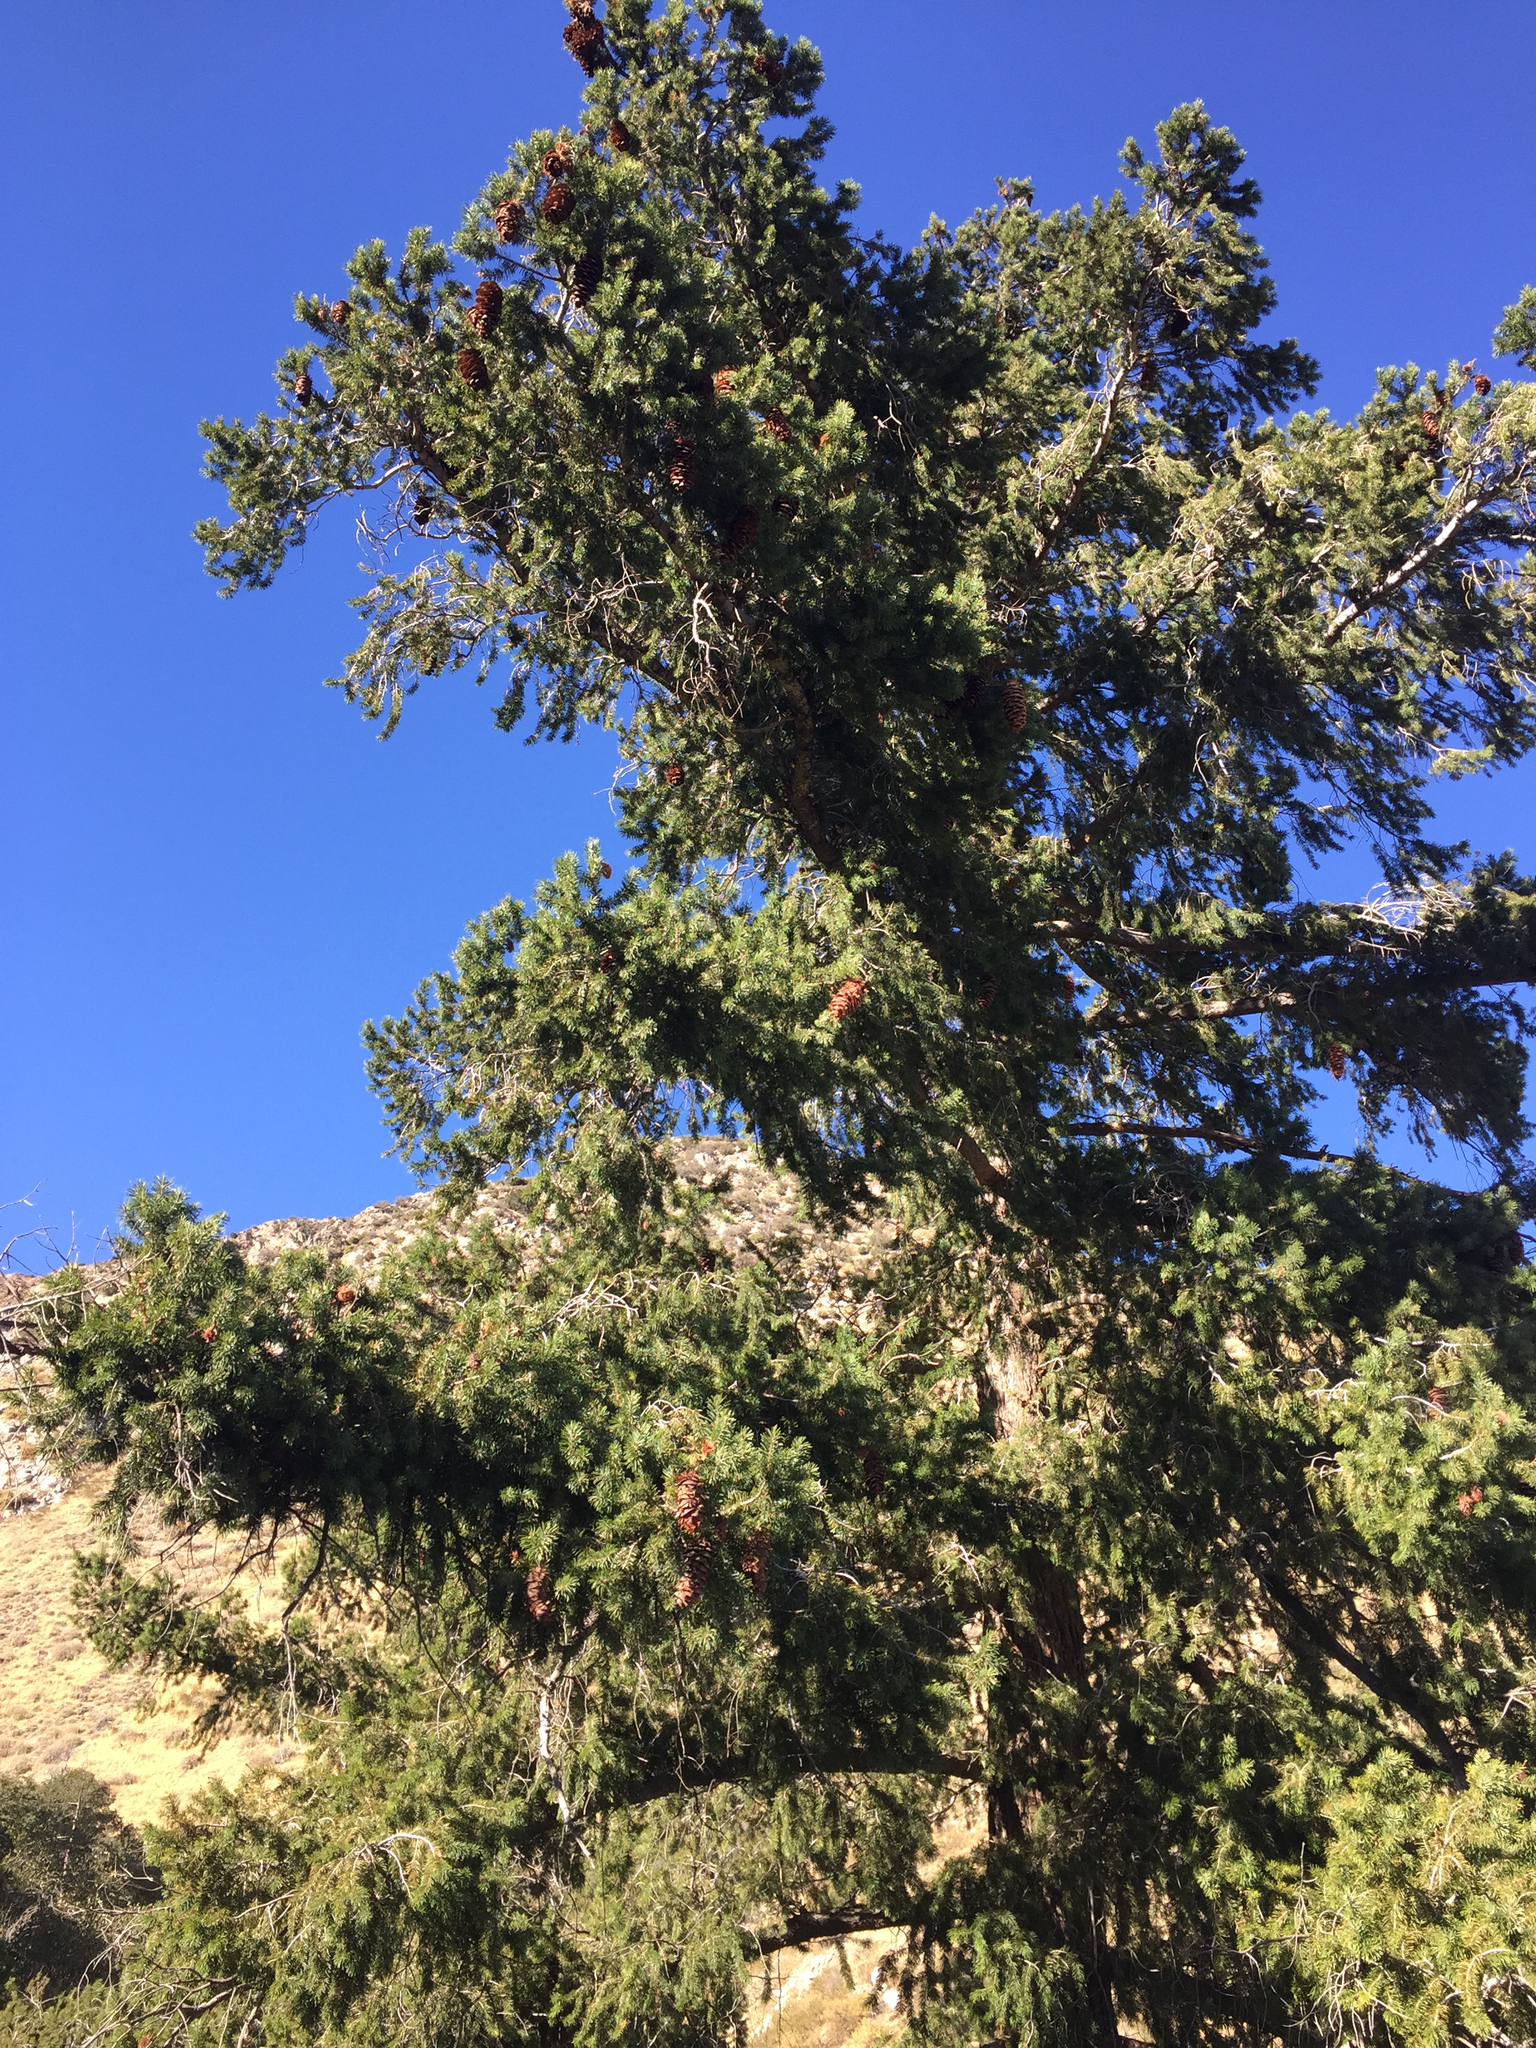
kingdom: Plantae
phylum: Tracheophyta
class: Pinopsida
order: Pinales
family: Pinaceae
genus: Pseudotsuga
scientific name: Pseudotsuga macrocarpa
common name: Big-cone douglas-fir
